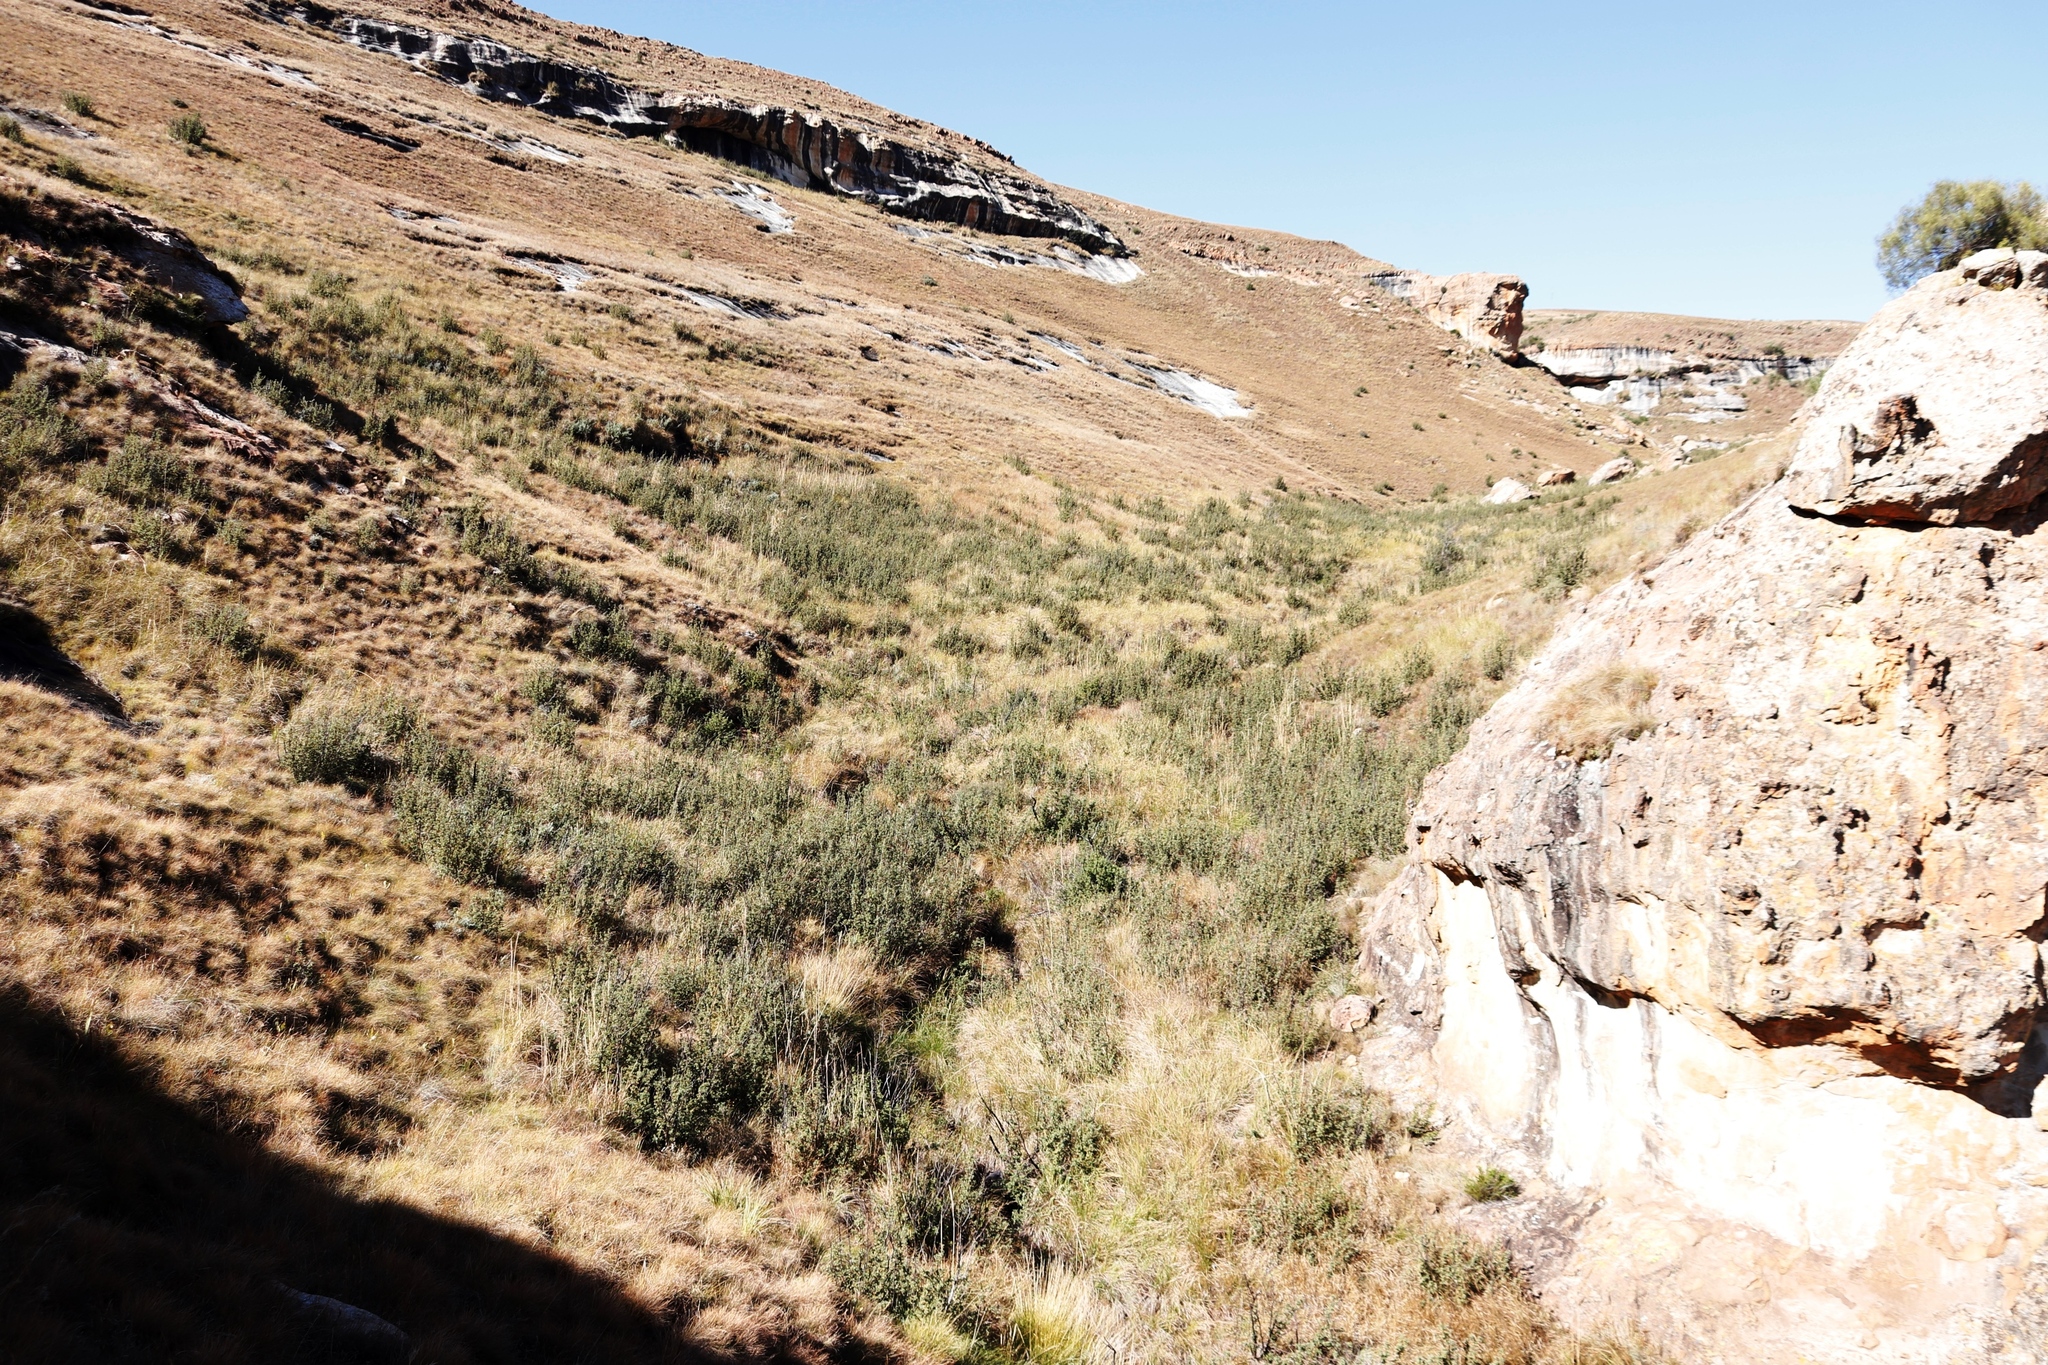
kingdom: Plantae
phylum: Tracheophyta
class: Magnoliopsida
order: Rosales
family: Rosaceae
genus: Leucosidea
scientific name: Leucosidea sericea
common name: Oldwood
